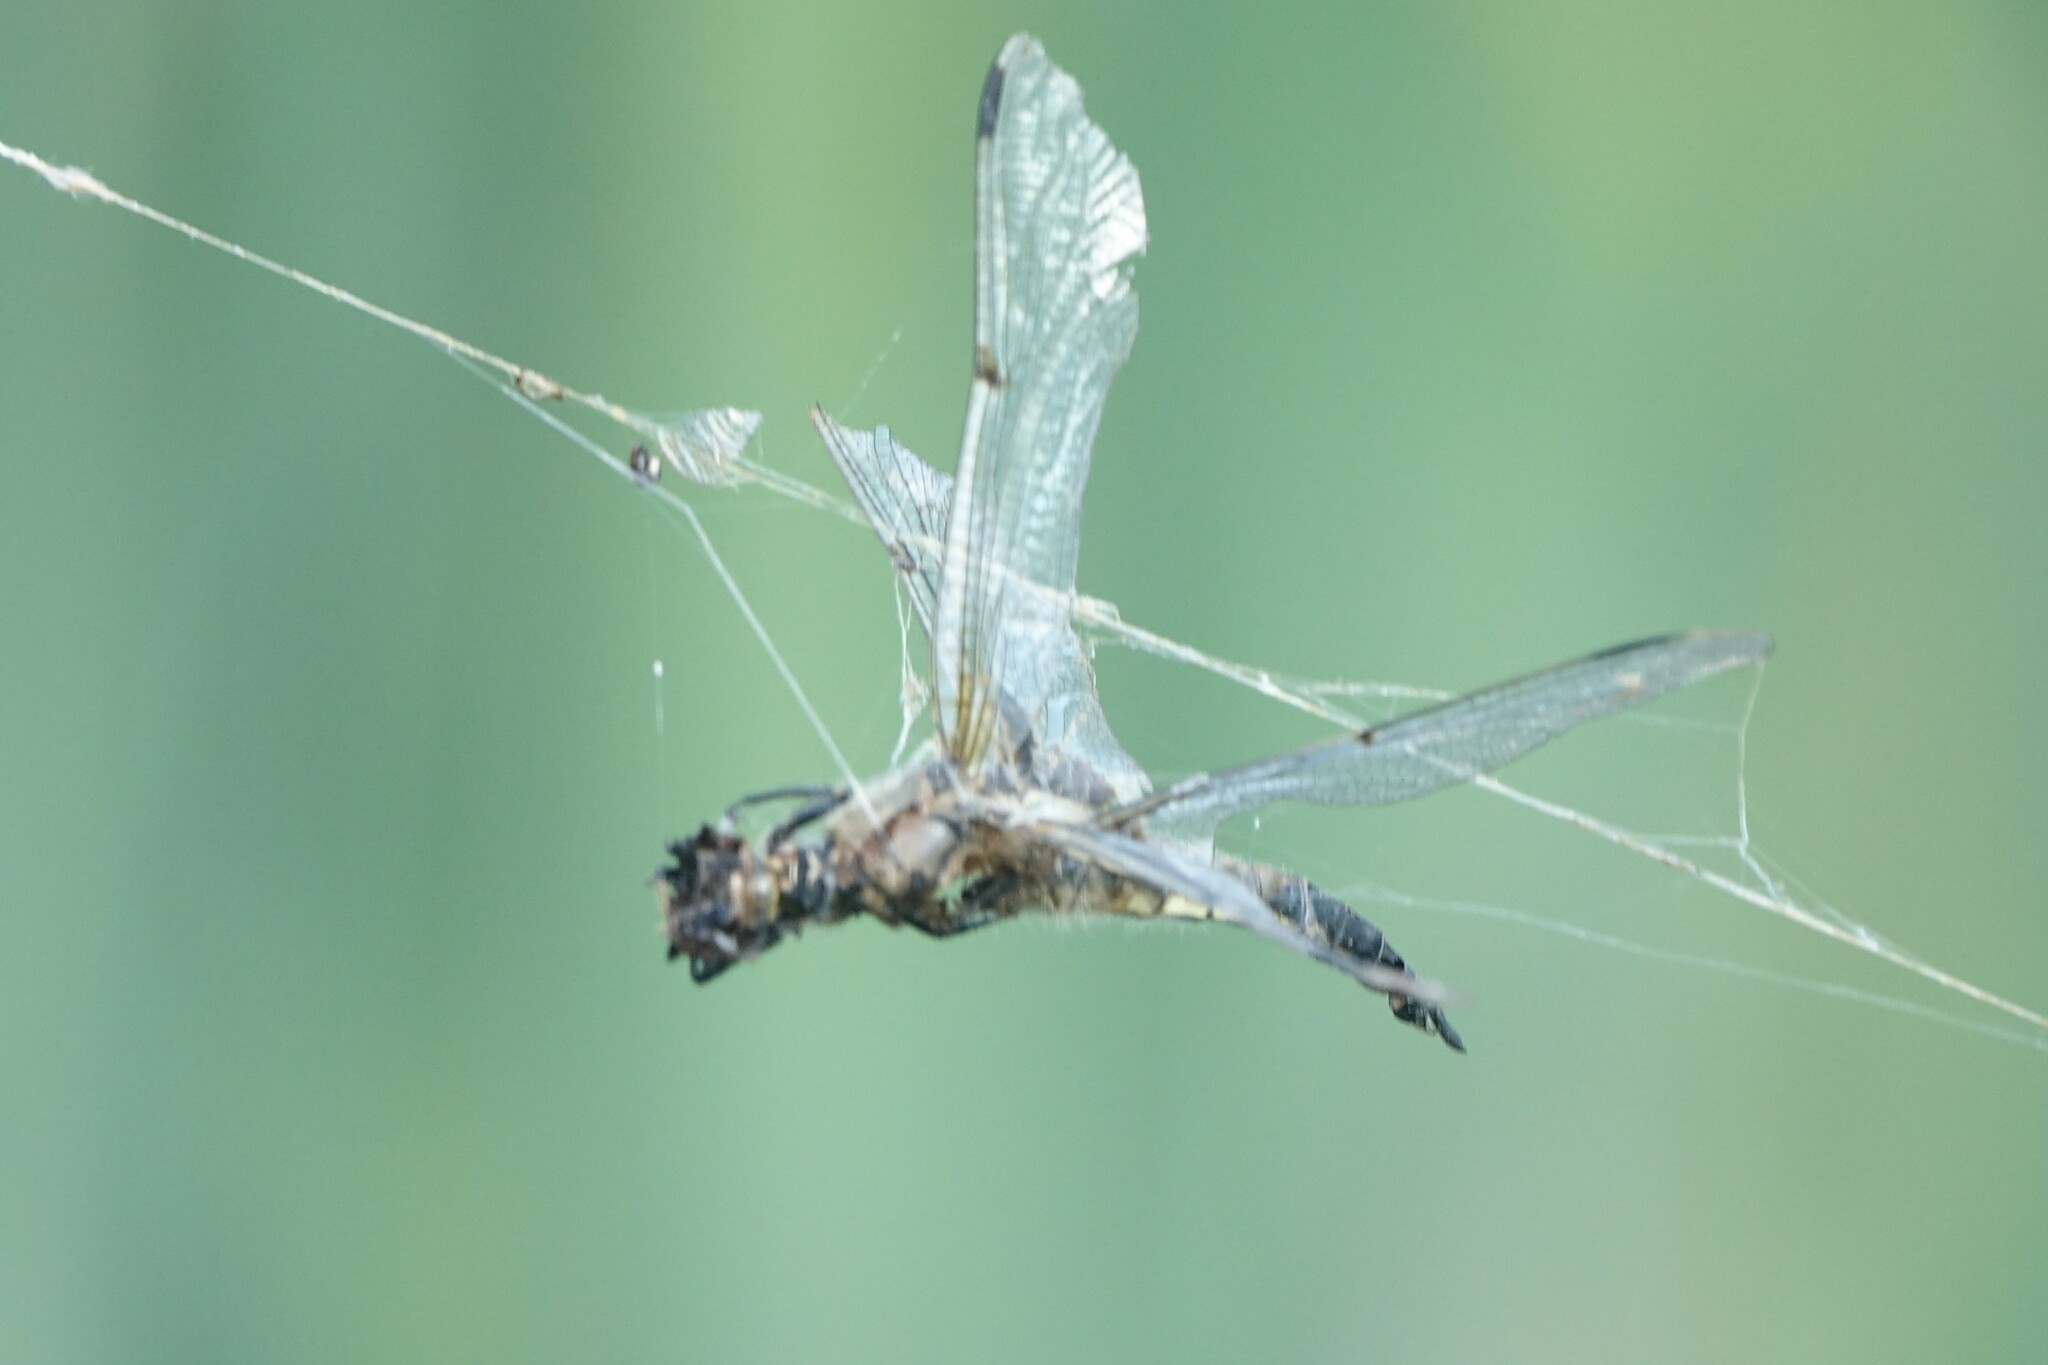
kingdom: Animalia
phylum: Arthropoda
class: Insecta
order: Odonata
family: Libellulidae
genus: Libellula
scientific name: Libellula quadrimaculata
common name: Four-spotted chaser
